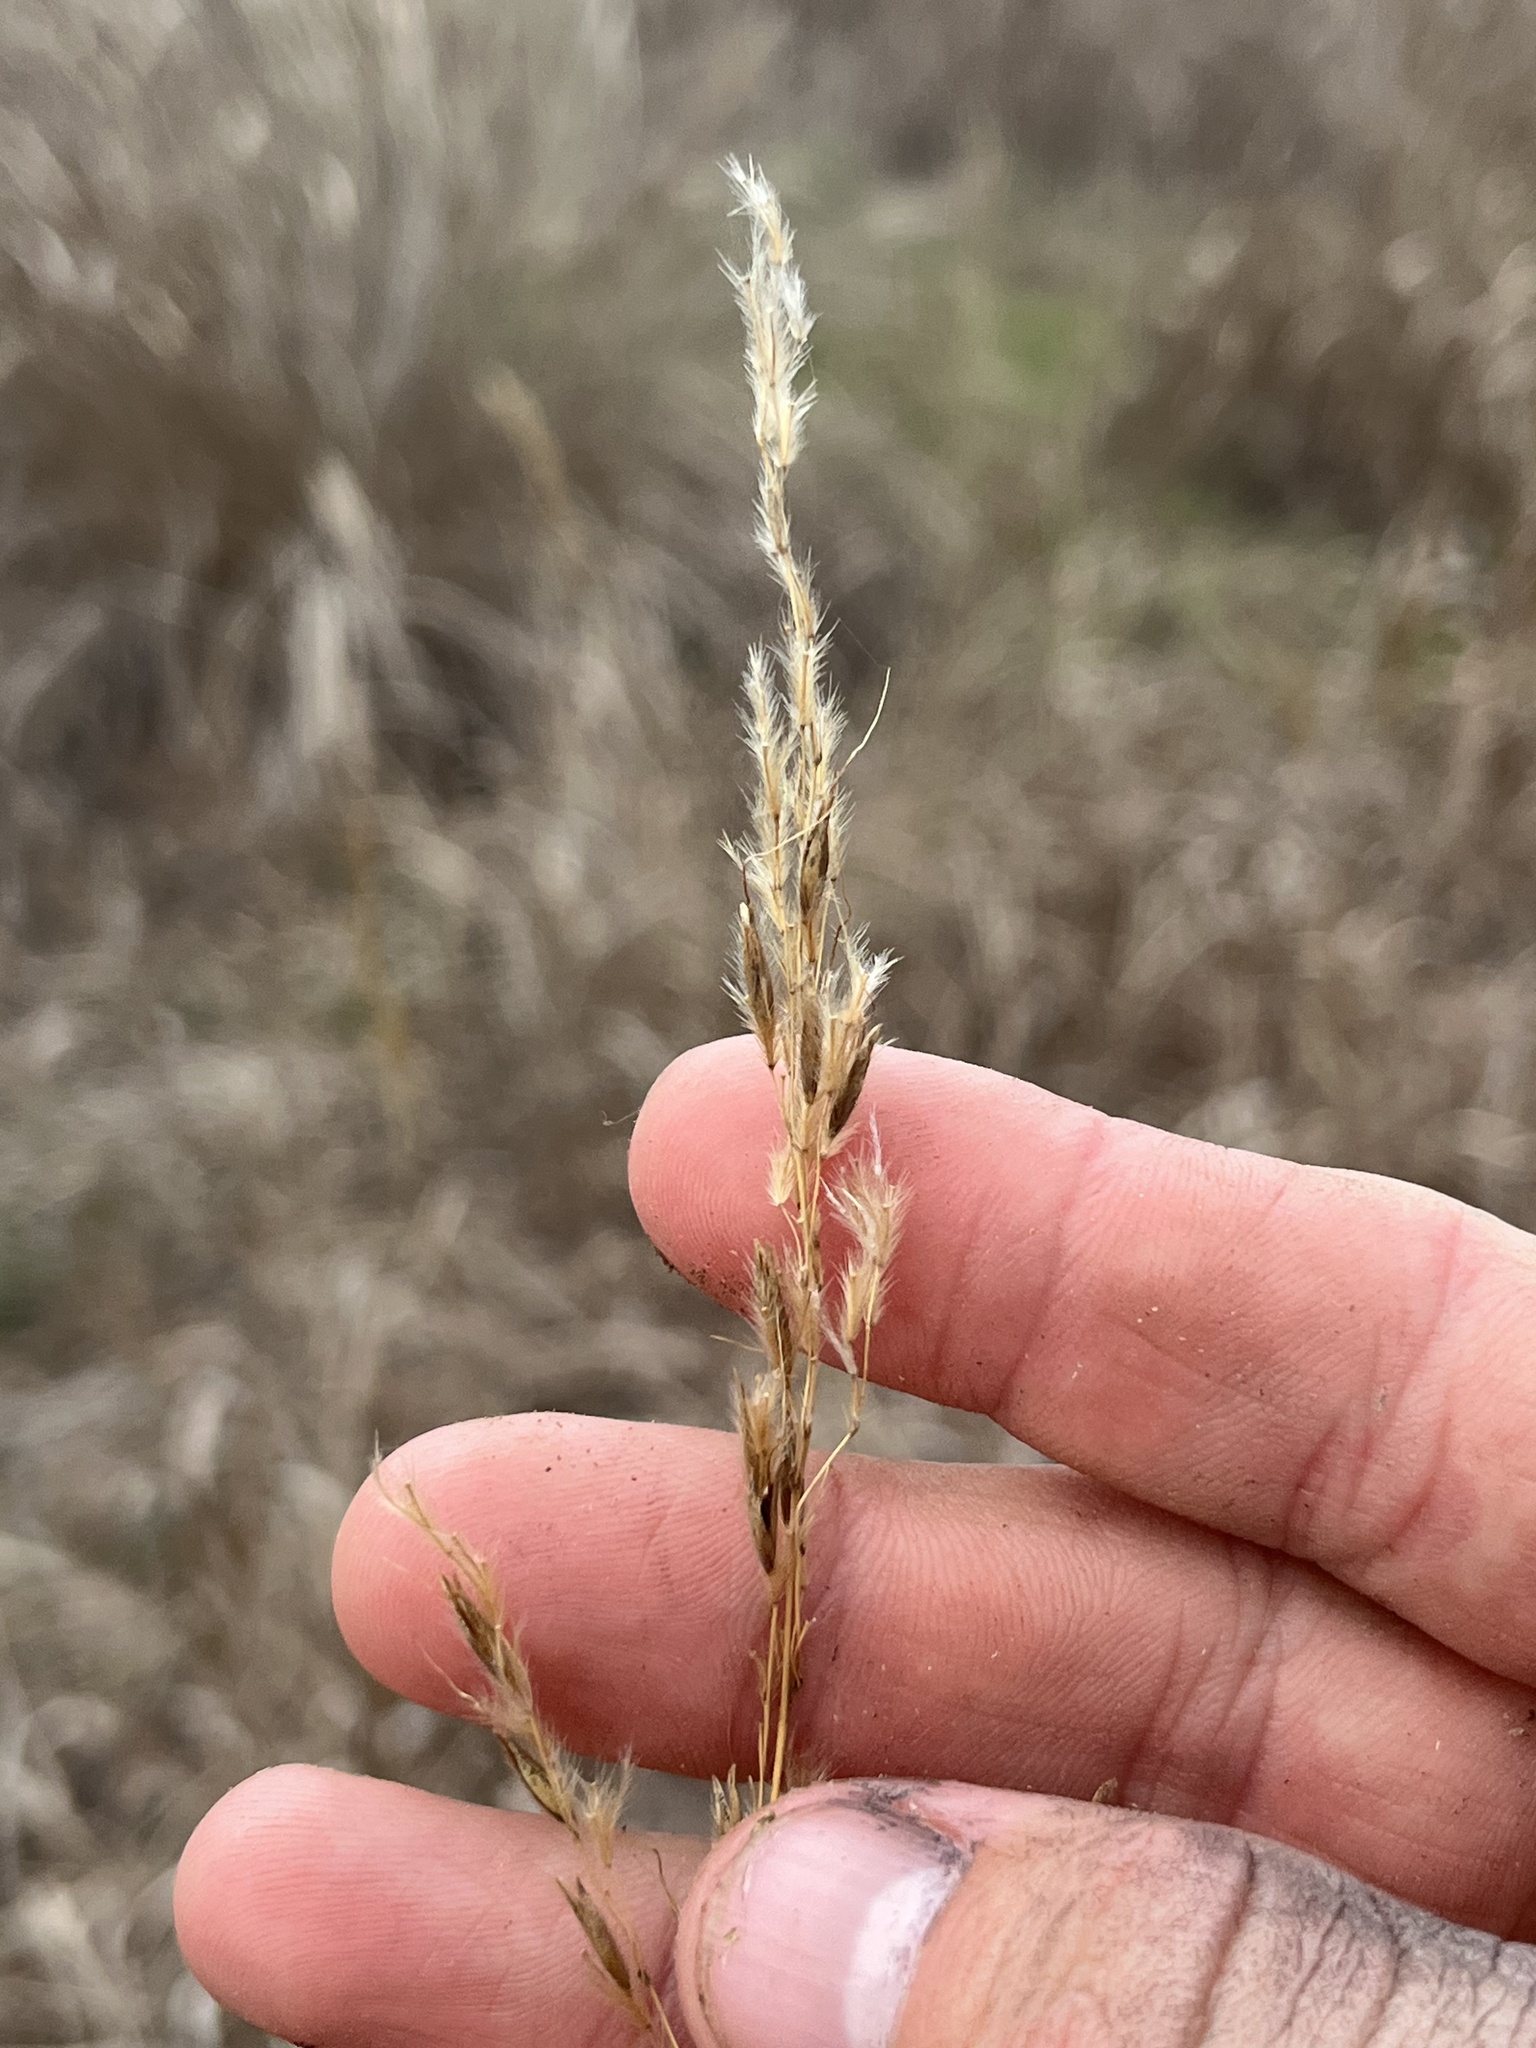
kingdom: Plantae
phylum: Tracheophyta
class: Liliopsida
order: Poales
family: Poaceae
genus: Sorghastrum
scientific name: Sorghastrum nutans
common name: Indian grass
